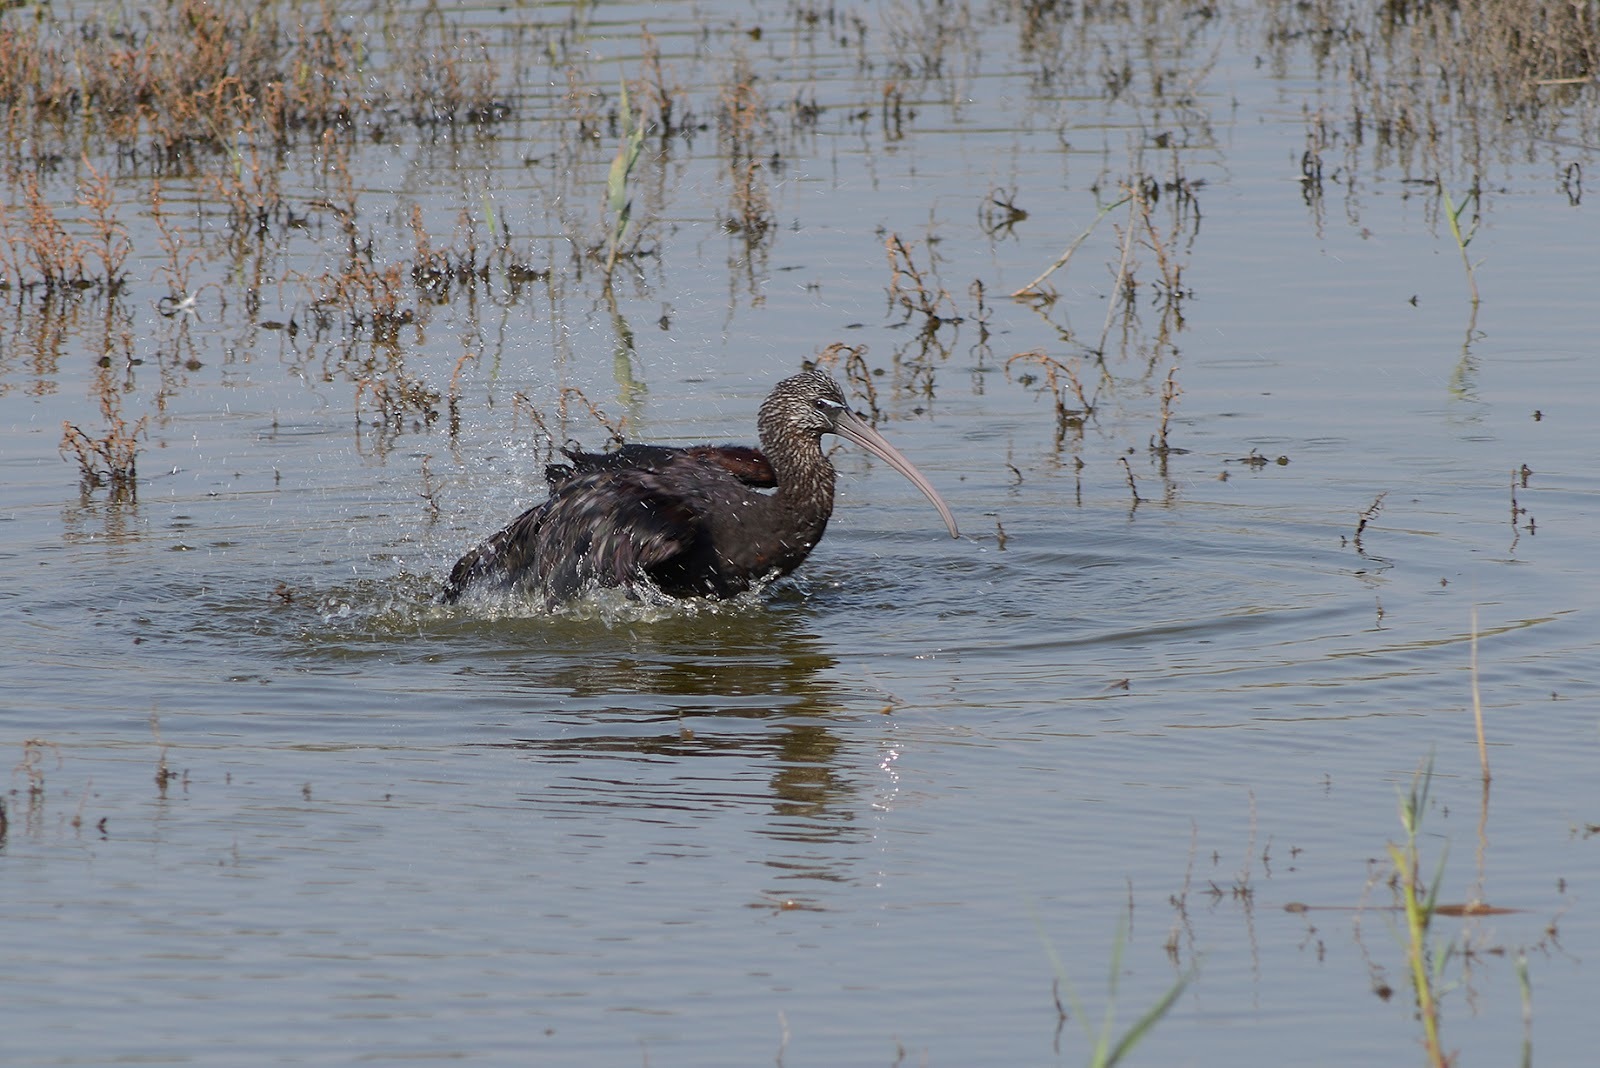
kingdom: Animalia
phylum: Chordata
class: Aves
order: Pelecaniformes
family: Threskiornithidae
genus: Plegadis
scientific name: Plegadis falcinellus
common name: Glossy ibis
